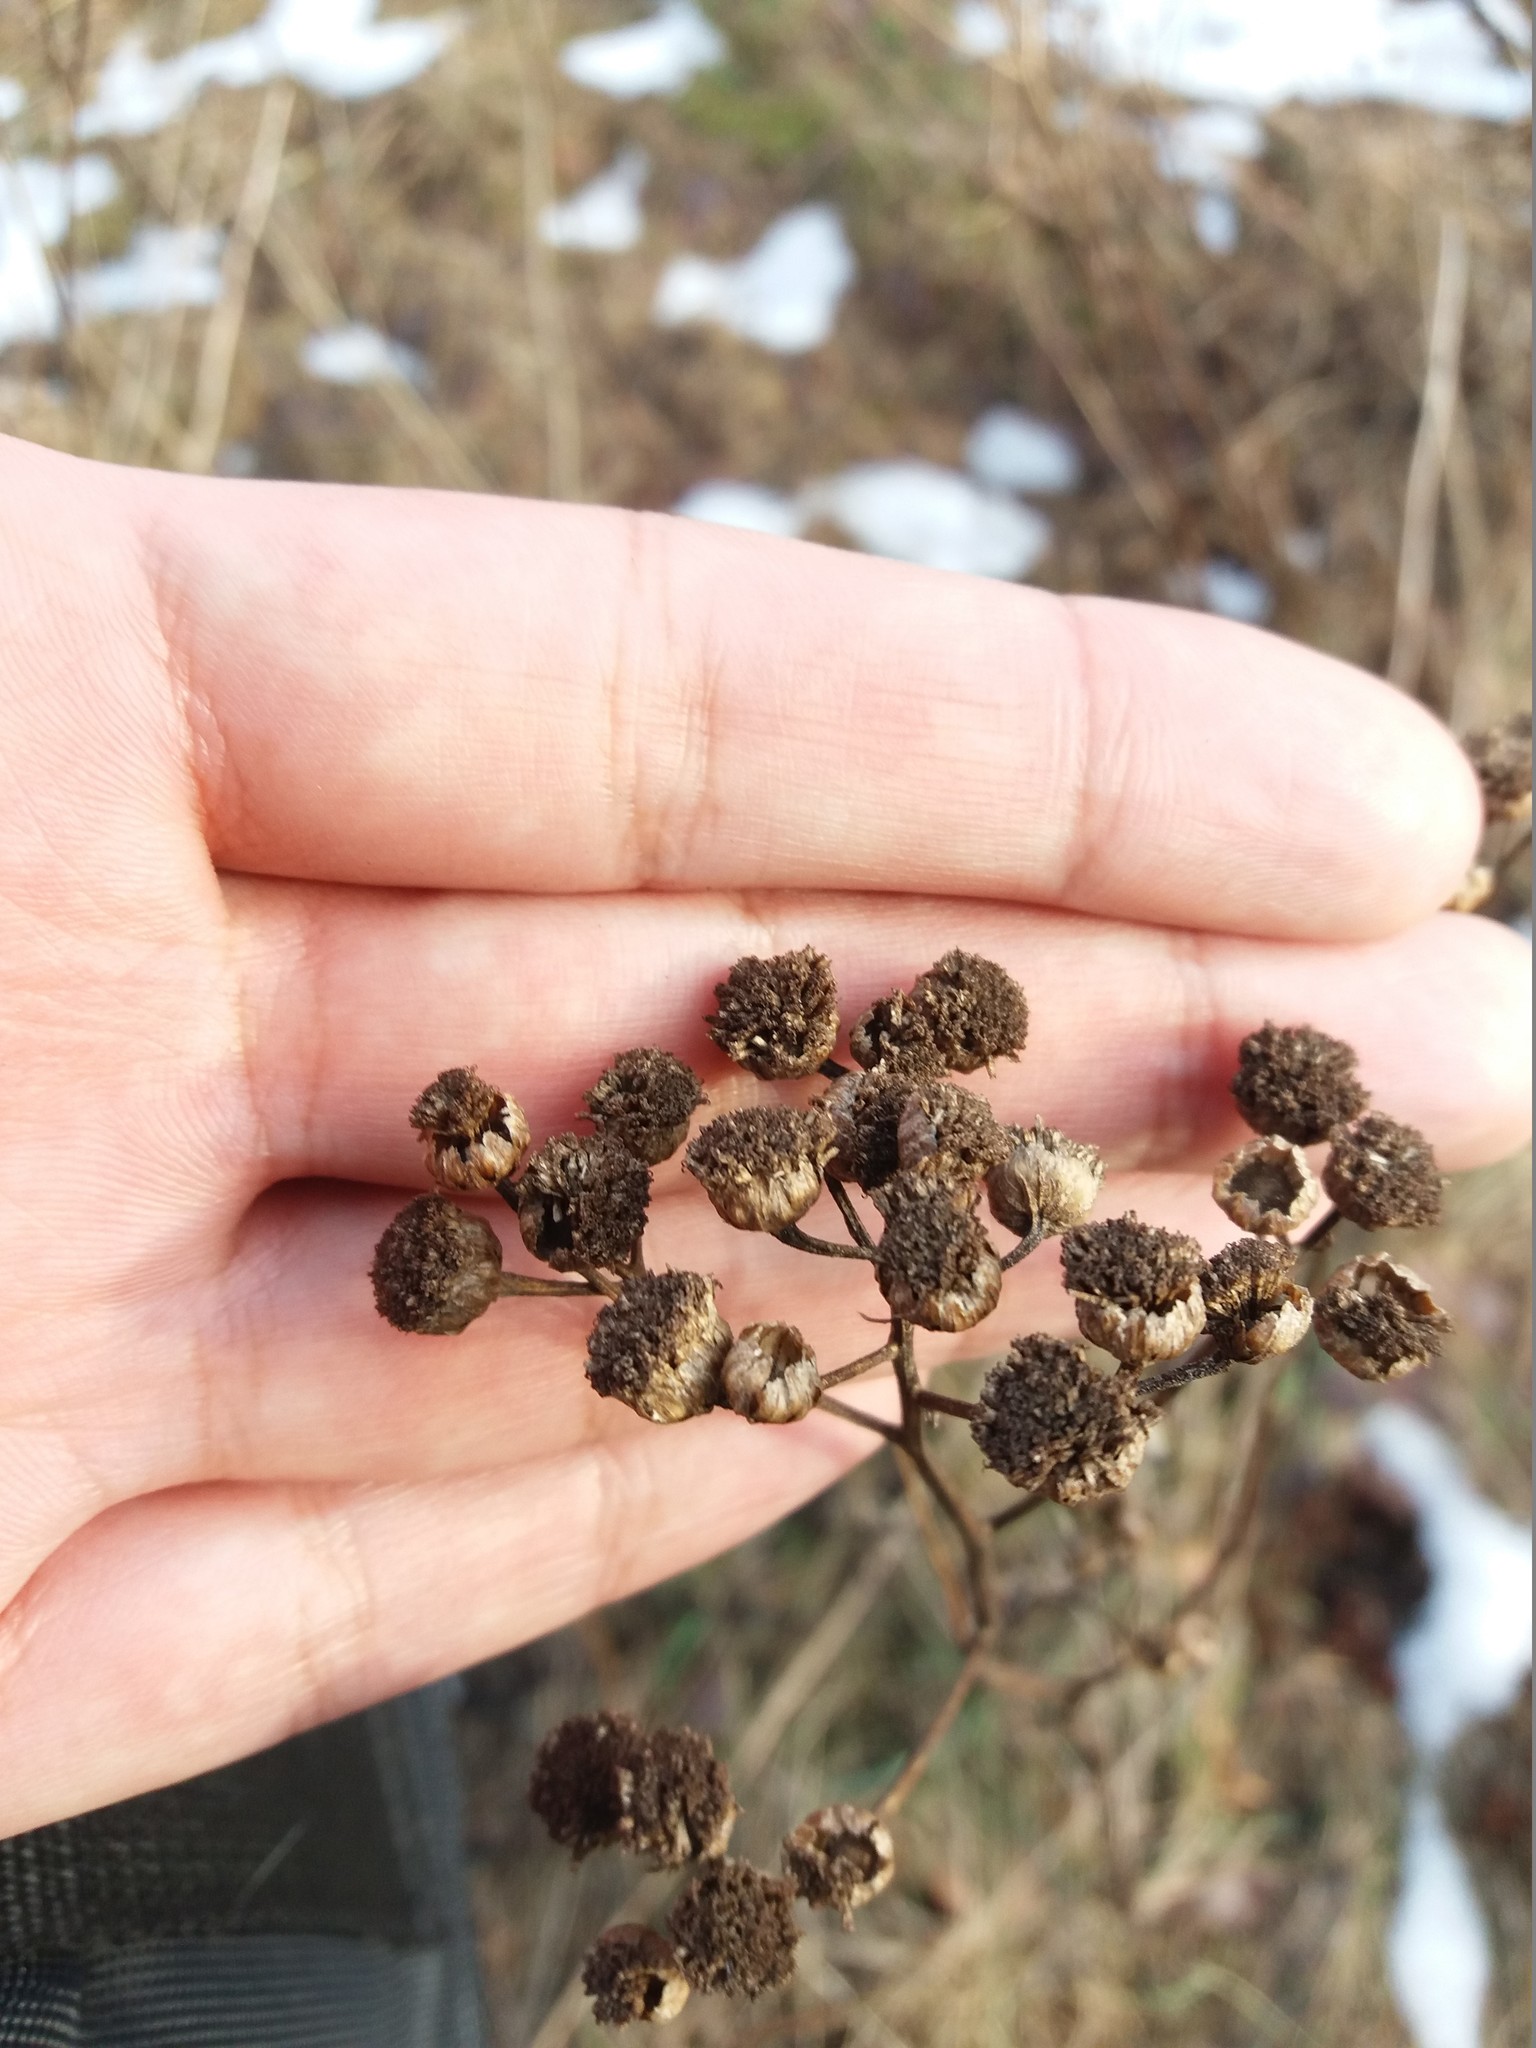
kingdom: Plantae
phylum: Tracheophyta
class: Magnoliopsida
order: Asterales
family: Asteraceae
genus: Tanacetum
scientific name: Tanacetum vulgare
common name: Common tansy
